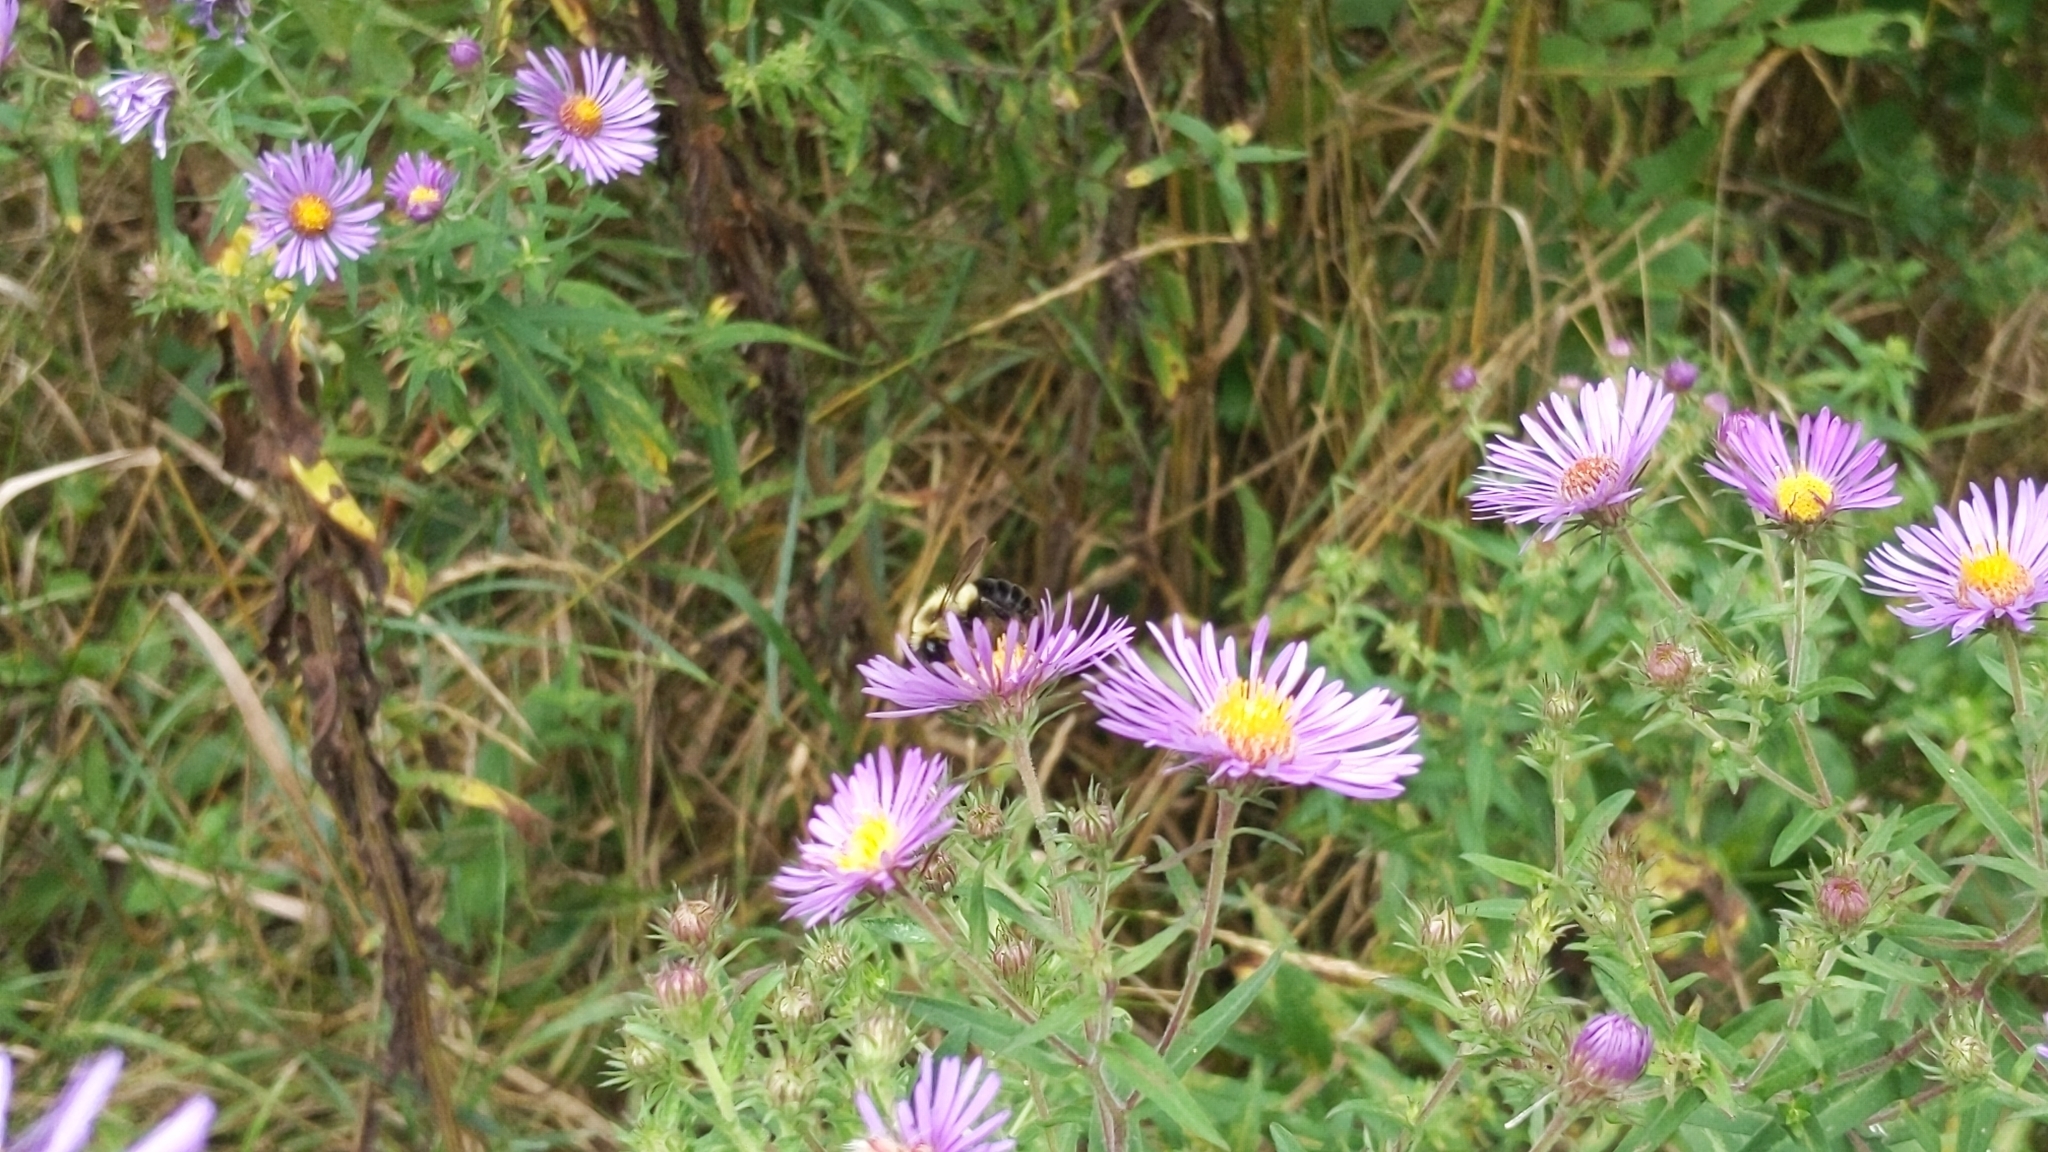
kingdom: Animalia
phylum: Arthropoda
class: Insecta
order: Hymenoptera
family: Apidae
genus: Bombus
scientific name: Bombus impatiens
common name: Common eastern bumble bee
